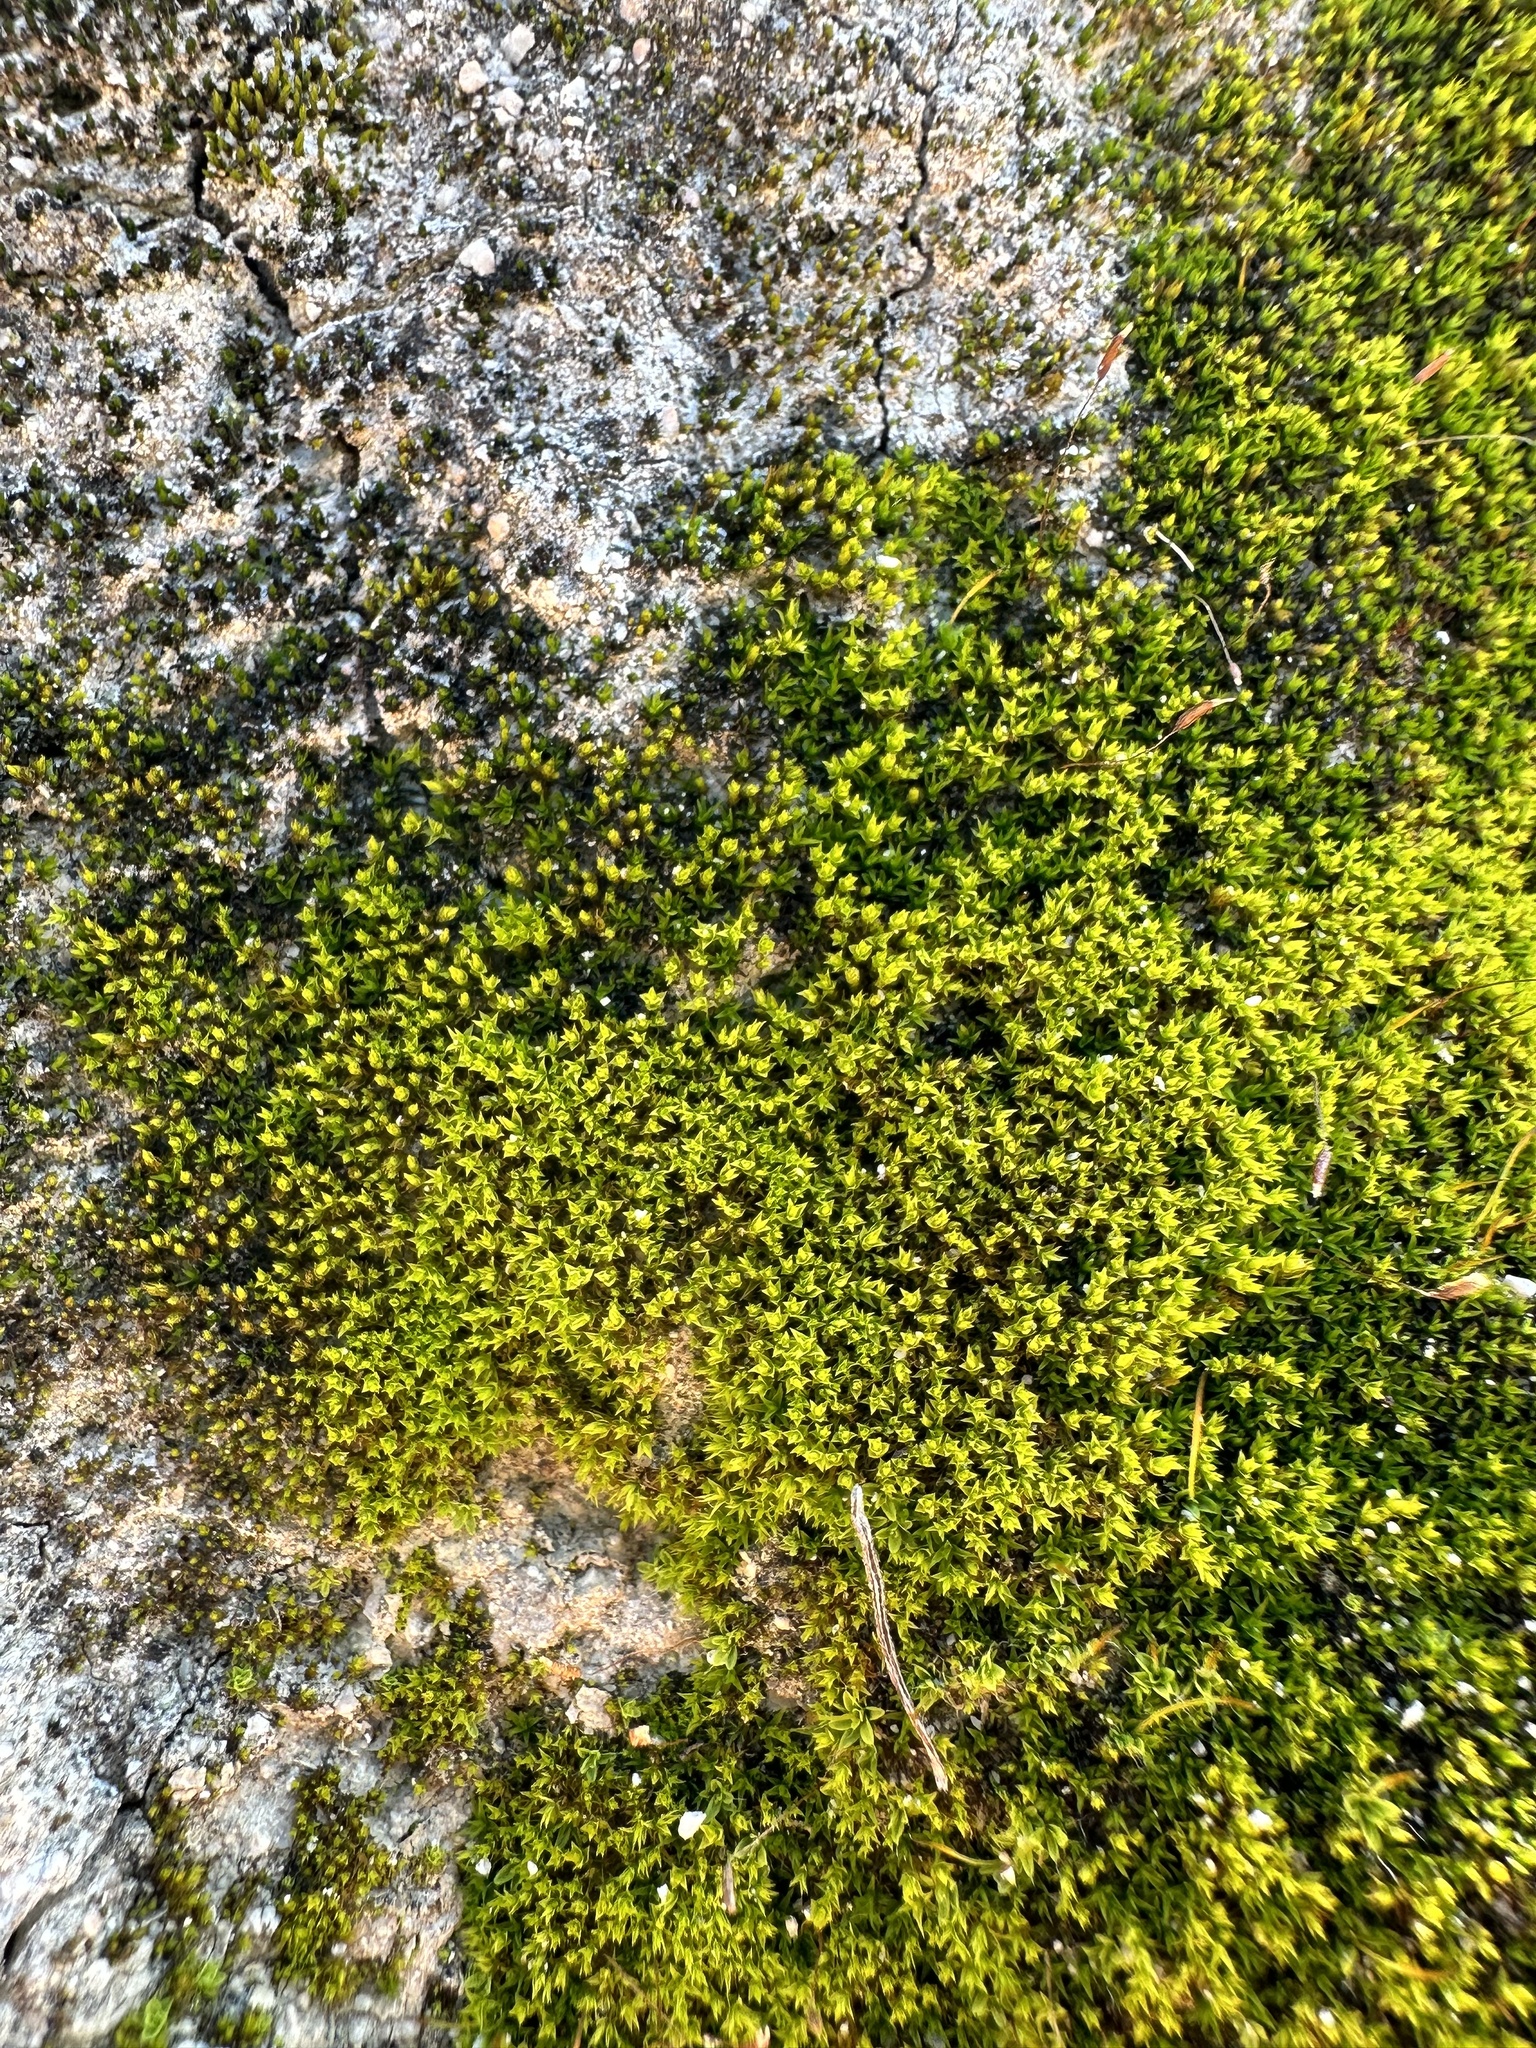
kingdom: Plantae
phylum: Bryophyta
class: Bryopsida
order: Pottiales
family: Pottiaceae
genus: Tortula
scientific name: Tortula muralis
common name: Wall screw-moss
